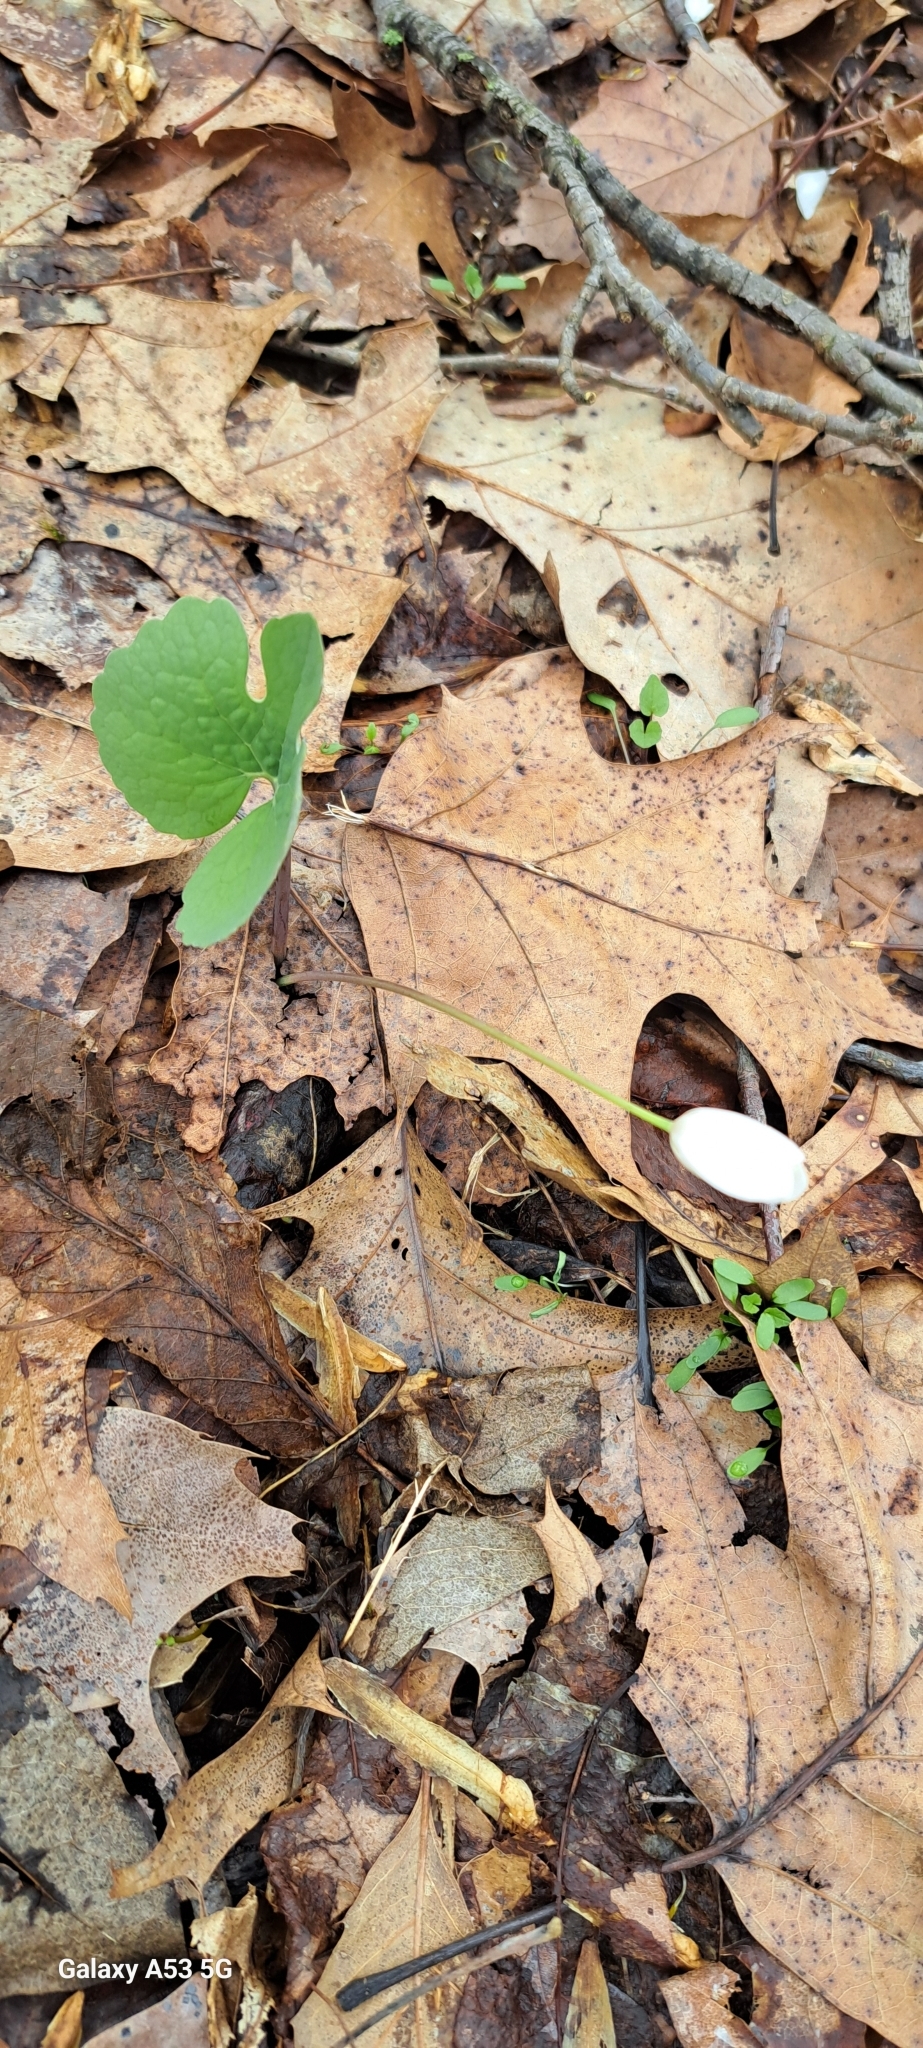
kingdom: Plantae
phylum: Tracheophyta
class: Magnoliopsida
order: Ranunculales
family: Papaveraceae
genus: Sanguinaria
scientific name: Sanguinaria canadensis
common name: Bloodroot
